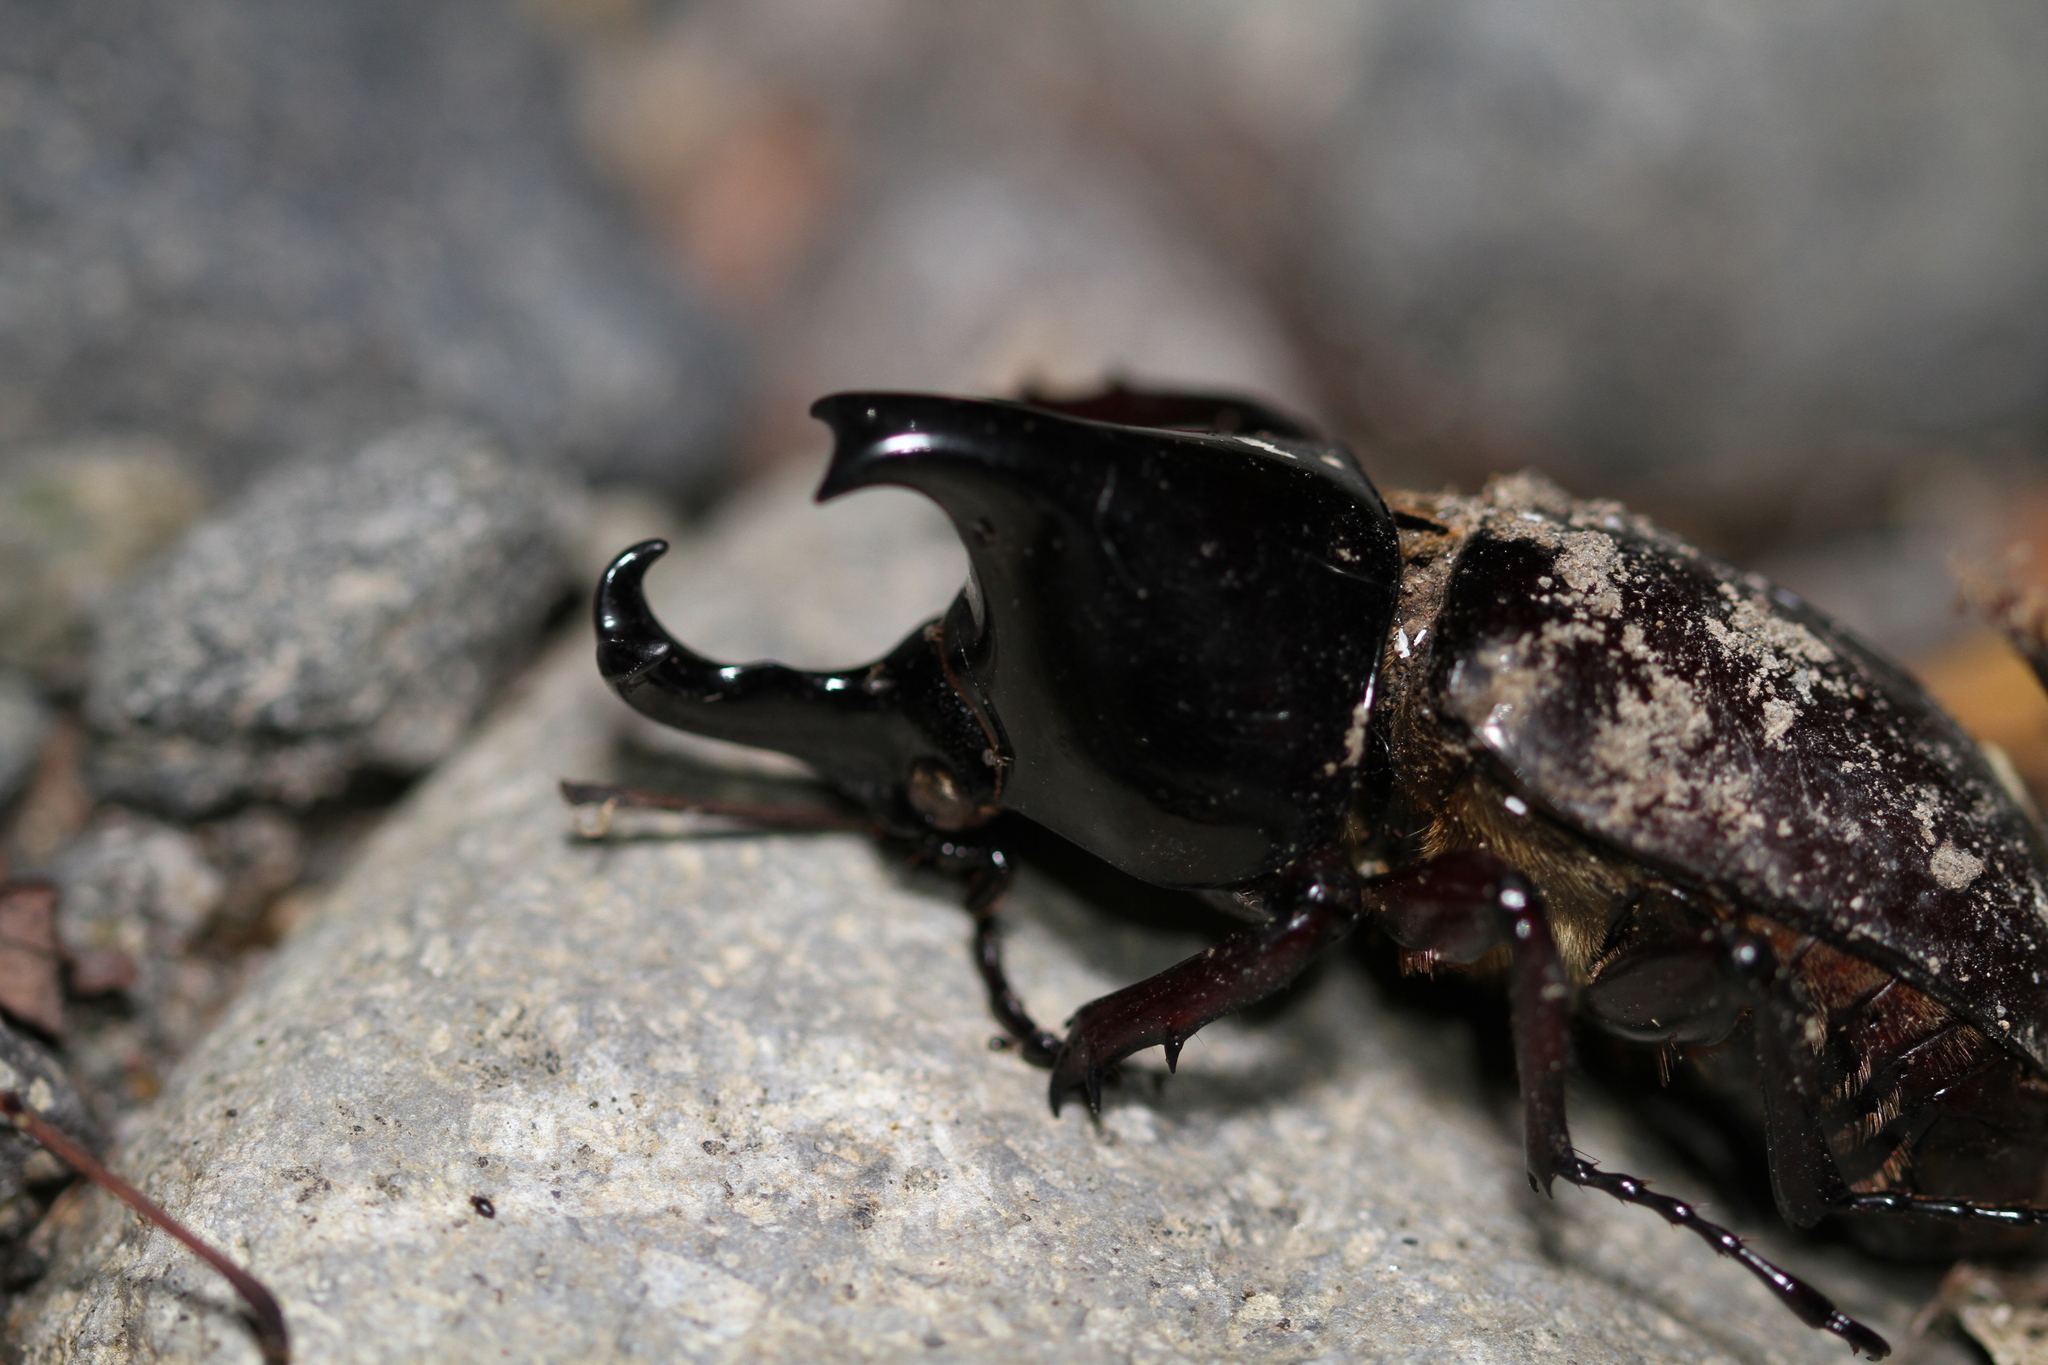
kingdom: Animalia
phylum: Arthropoda
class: Insecta
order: Coleoptera
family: Scarabaeidae
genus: Xylotrupes
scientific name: Xylotrupes sumatrensis
